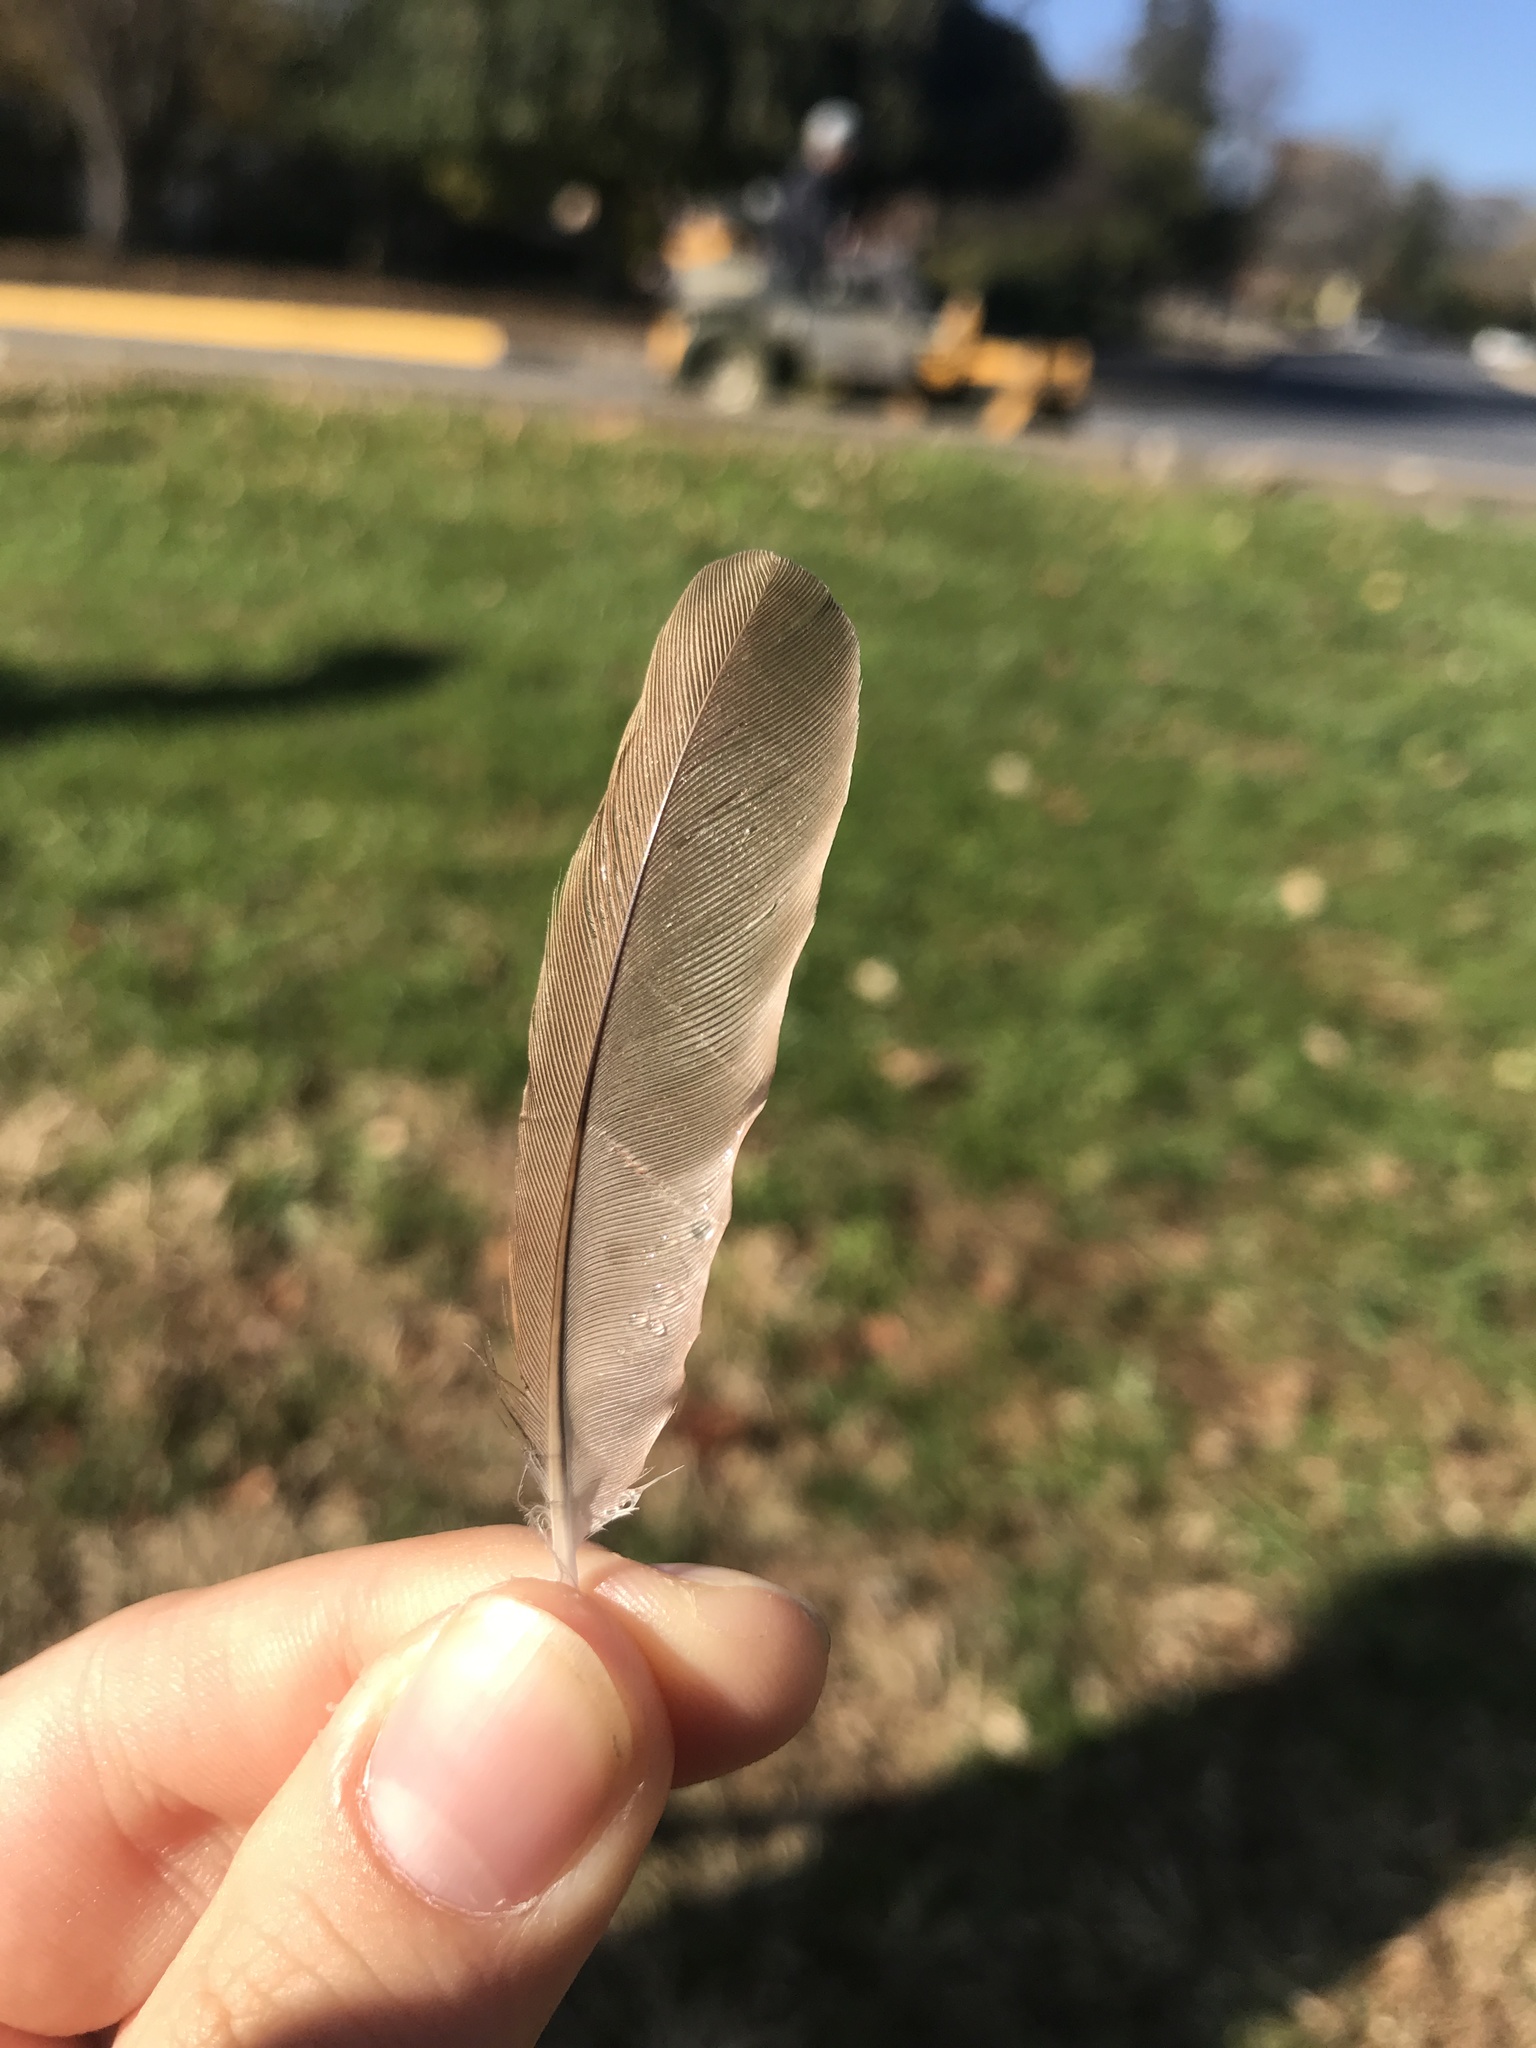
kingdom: Animalia
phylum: Chordata
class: Aves
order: Passeriformes
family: Cardinalidae
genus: Cardinalis
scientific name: Cardinalis cardinalis
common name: Northern cardinal
